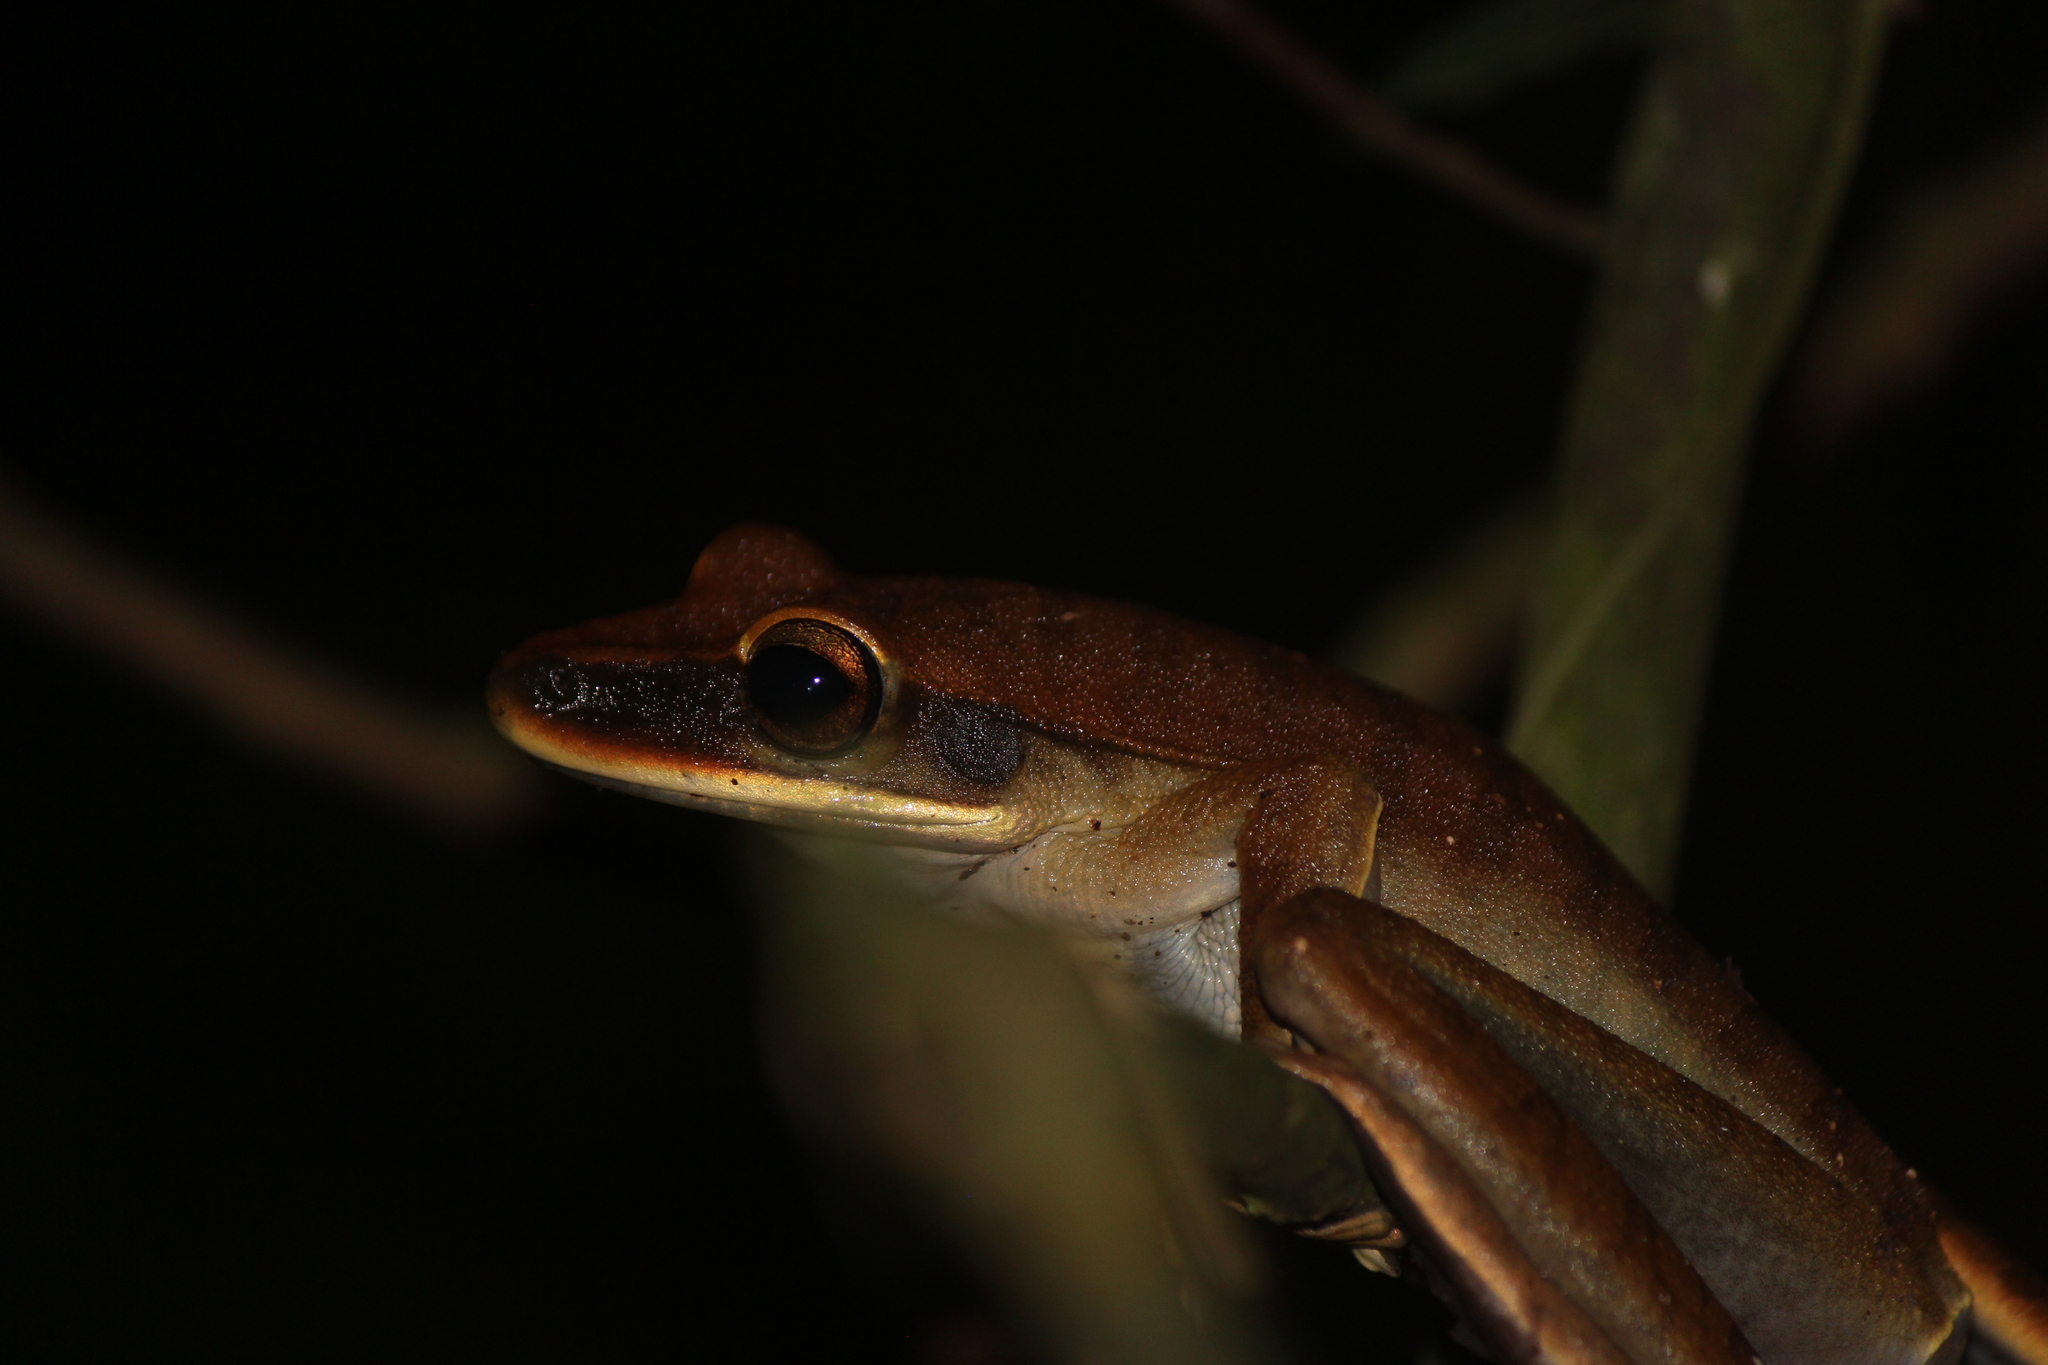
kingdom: Animalia
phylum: Chordata
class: Amphibia
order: Anura
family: Hylidae
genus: Boana
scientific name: Boana lanciformis
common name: Rana lanceolada commún
